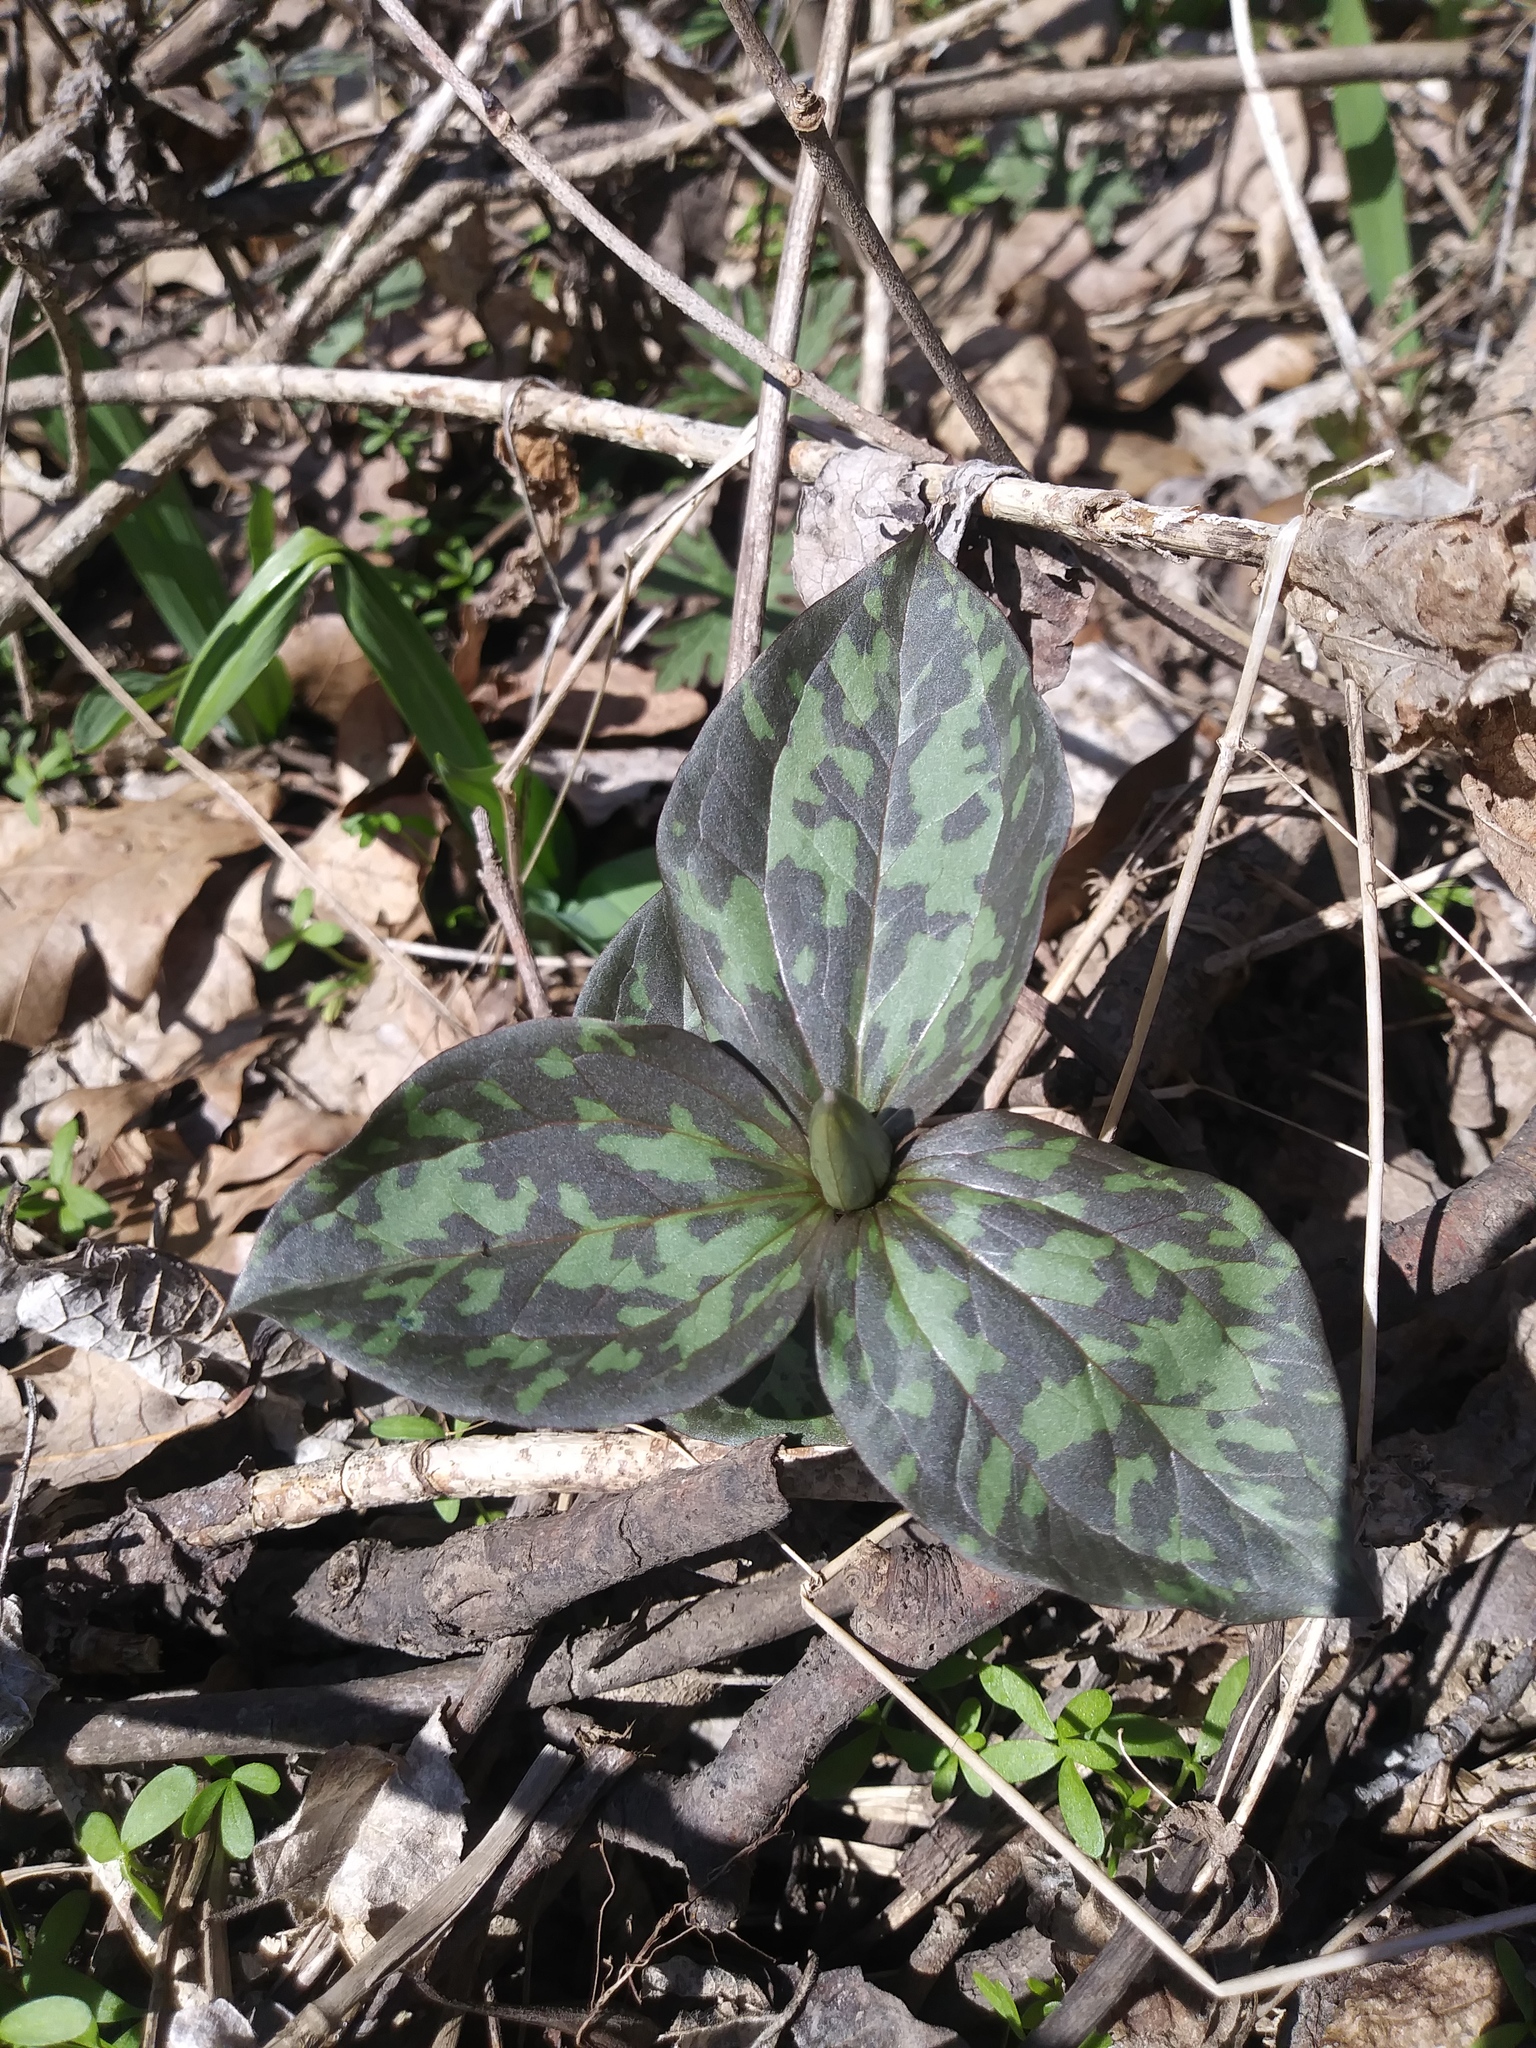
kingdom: Plantae
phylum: Tracheophyta
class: Liliopsida
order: Liliales
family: Melanthiaceae
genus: Trillium
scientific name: Trillium recurvatum
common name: Bloody butcher
